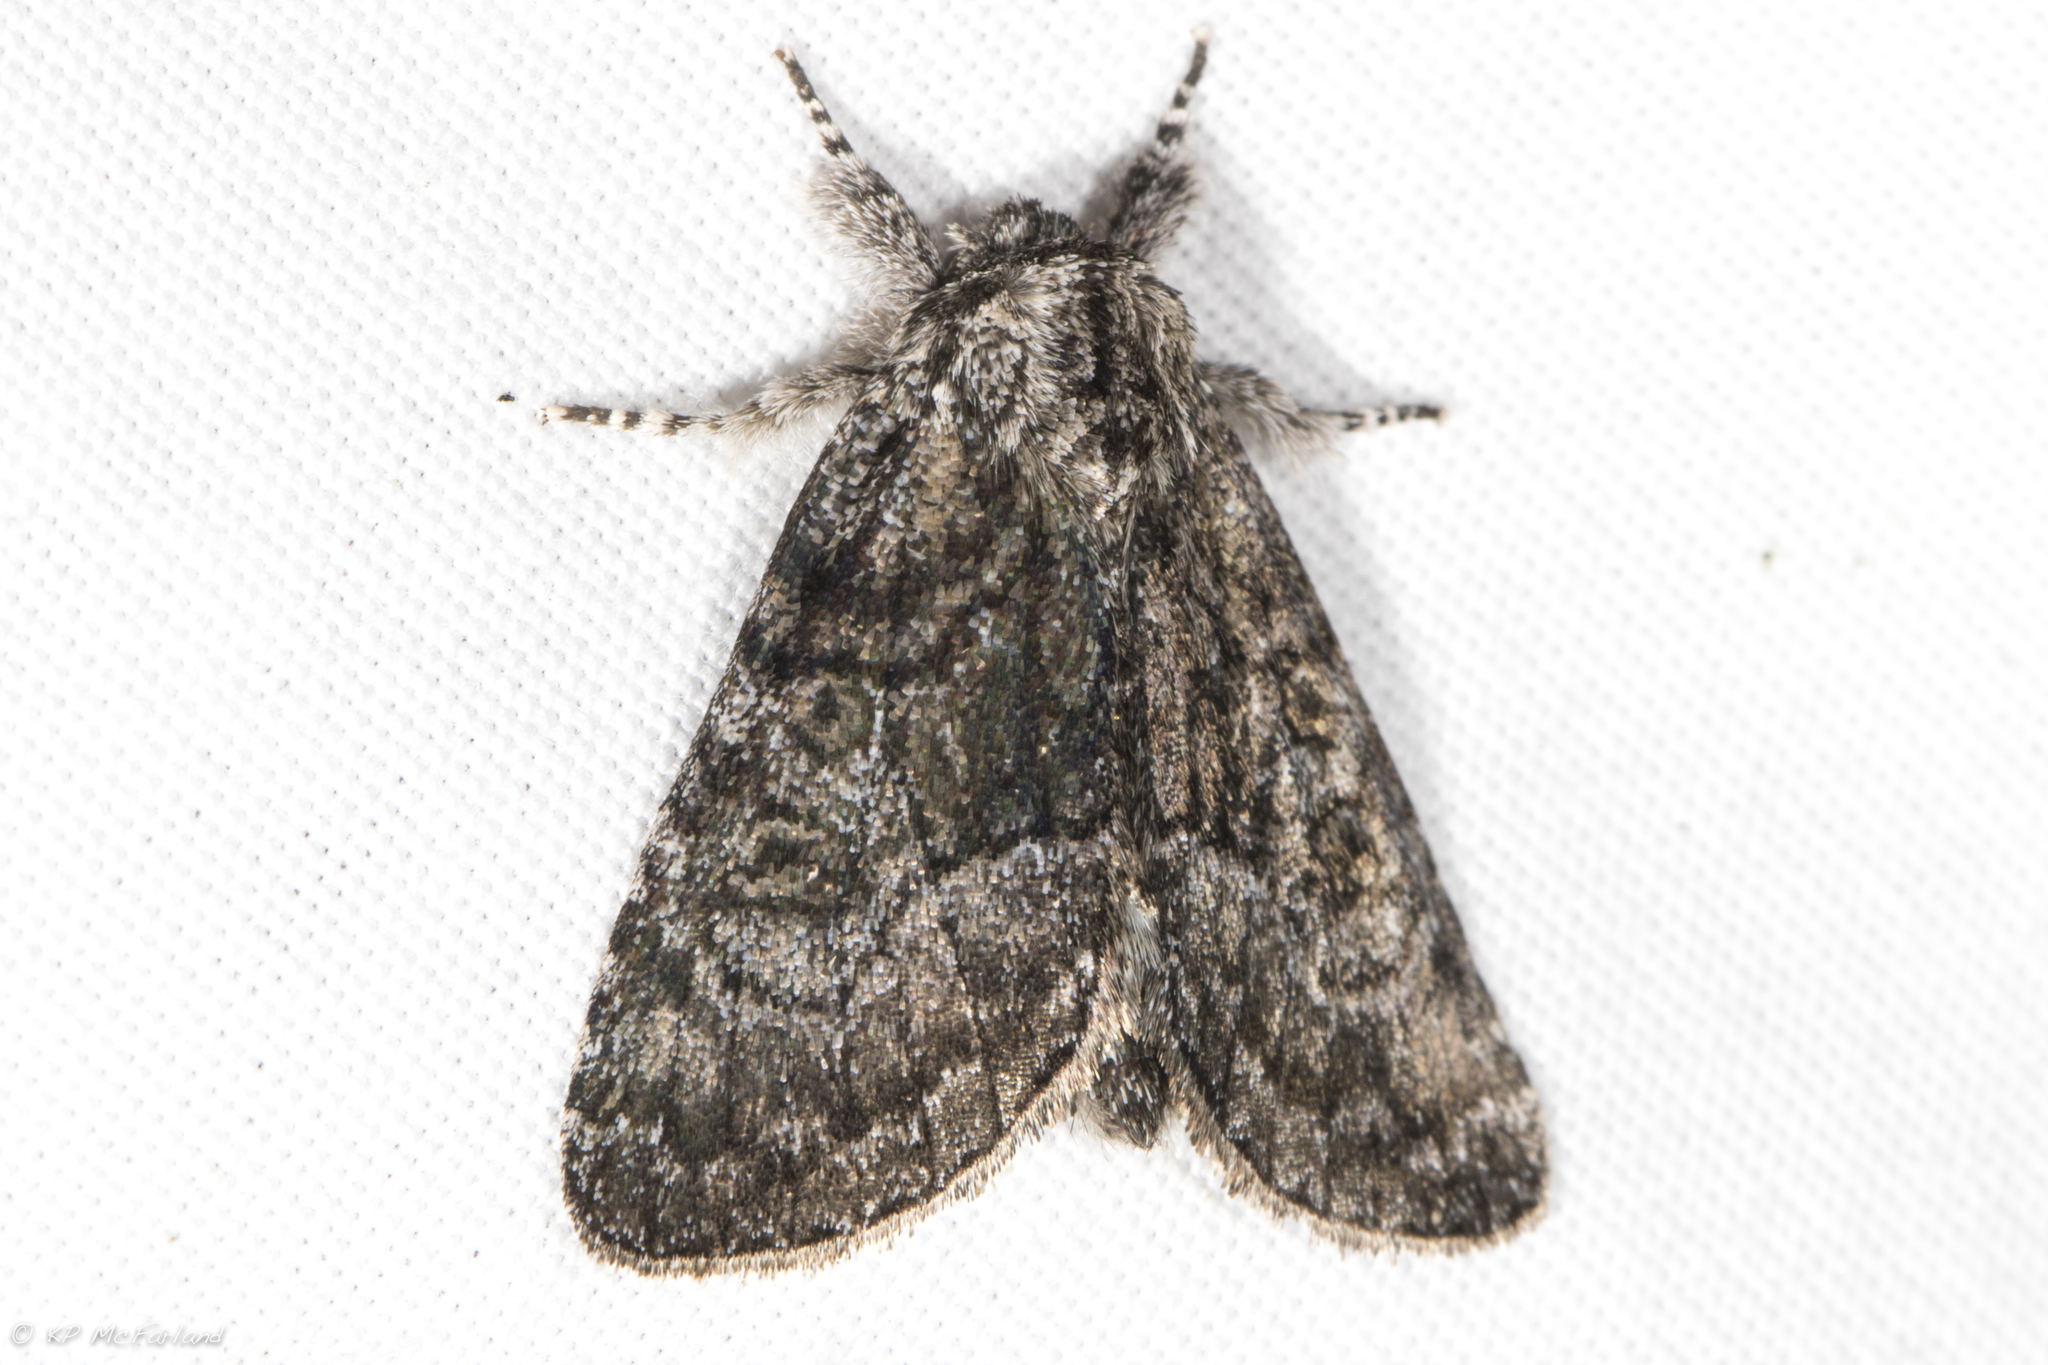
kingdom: Animalia
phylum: Arthropoda
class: Insecta
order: Lepidoptera
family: Noctuidae
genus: Raphia
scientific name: Raphia frater
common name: Brother
